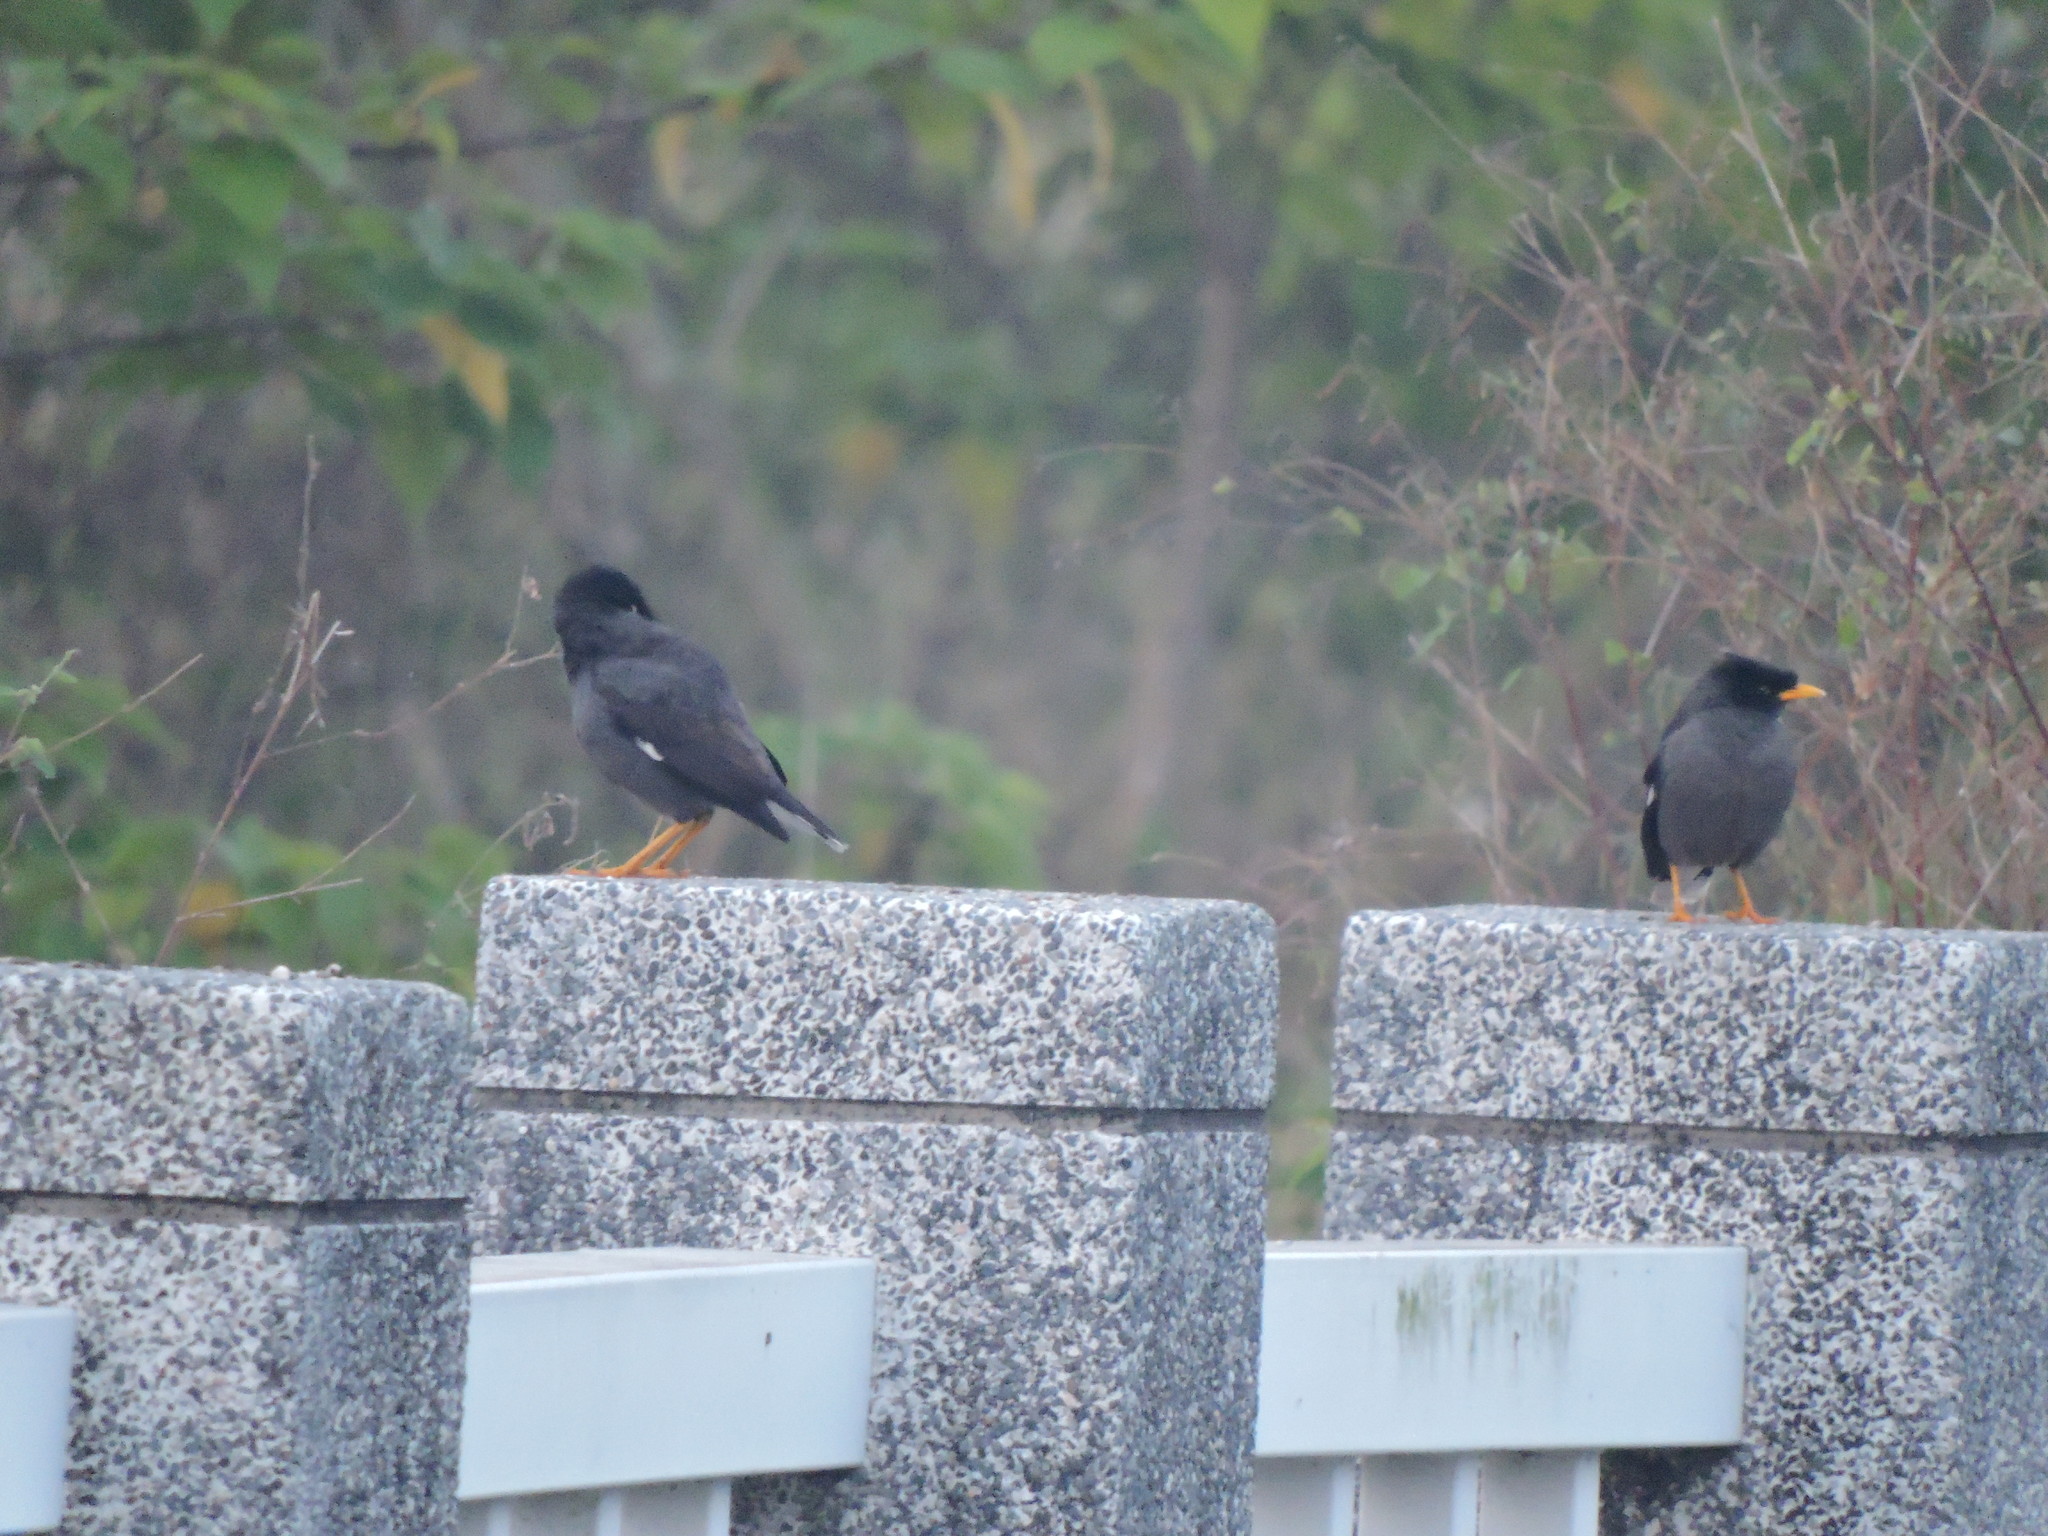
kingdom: Animalia
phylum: Chordata
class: Aves
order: Passeriformes
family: Sturnidae
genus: Acridotheres
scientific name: Acridotheres javanicus
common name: Javan myna
